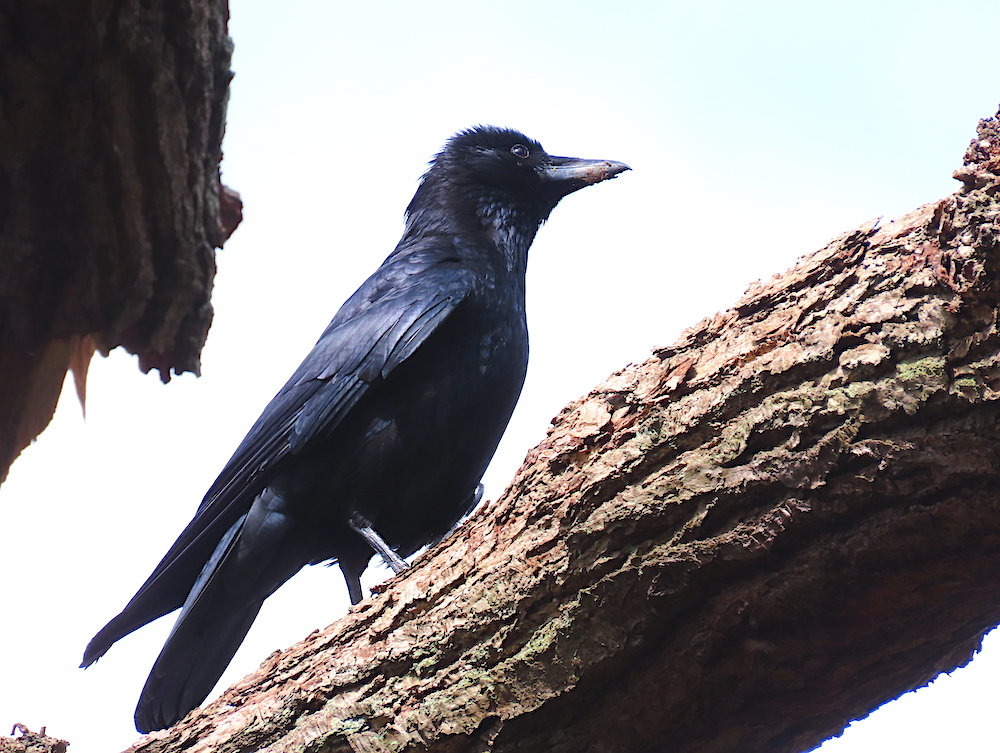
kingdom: Animalia
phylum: Chordata
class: Aves
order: Passeriformes
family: Corvidae
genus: Corvus
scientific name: Corvus corone
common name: Carrion crow
